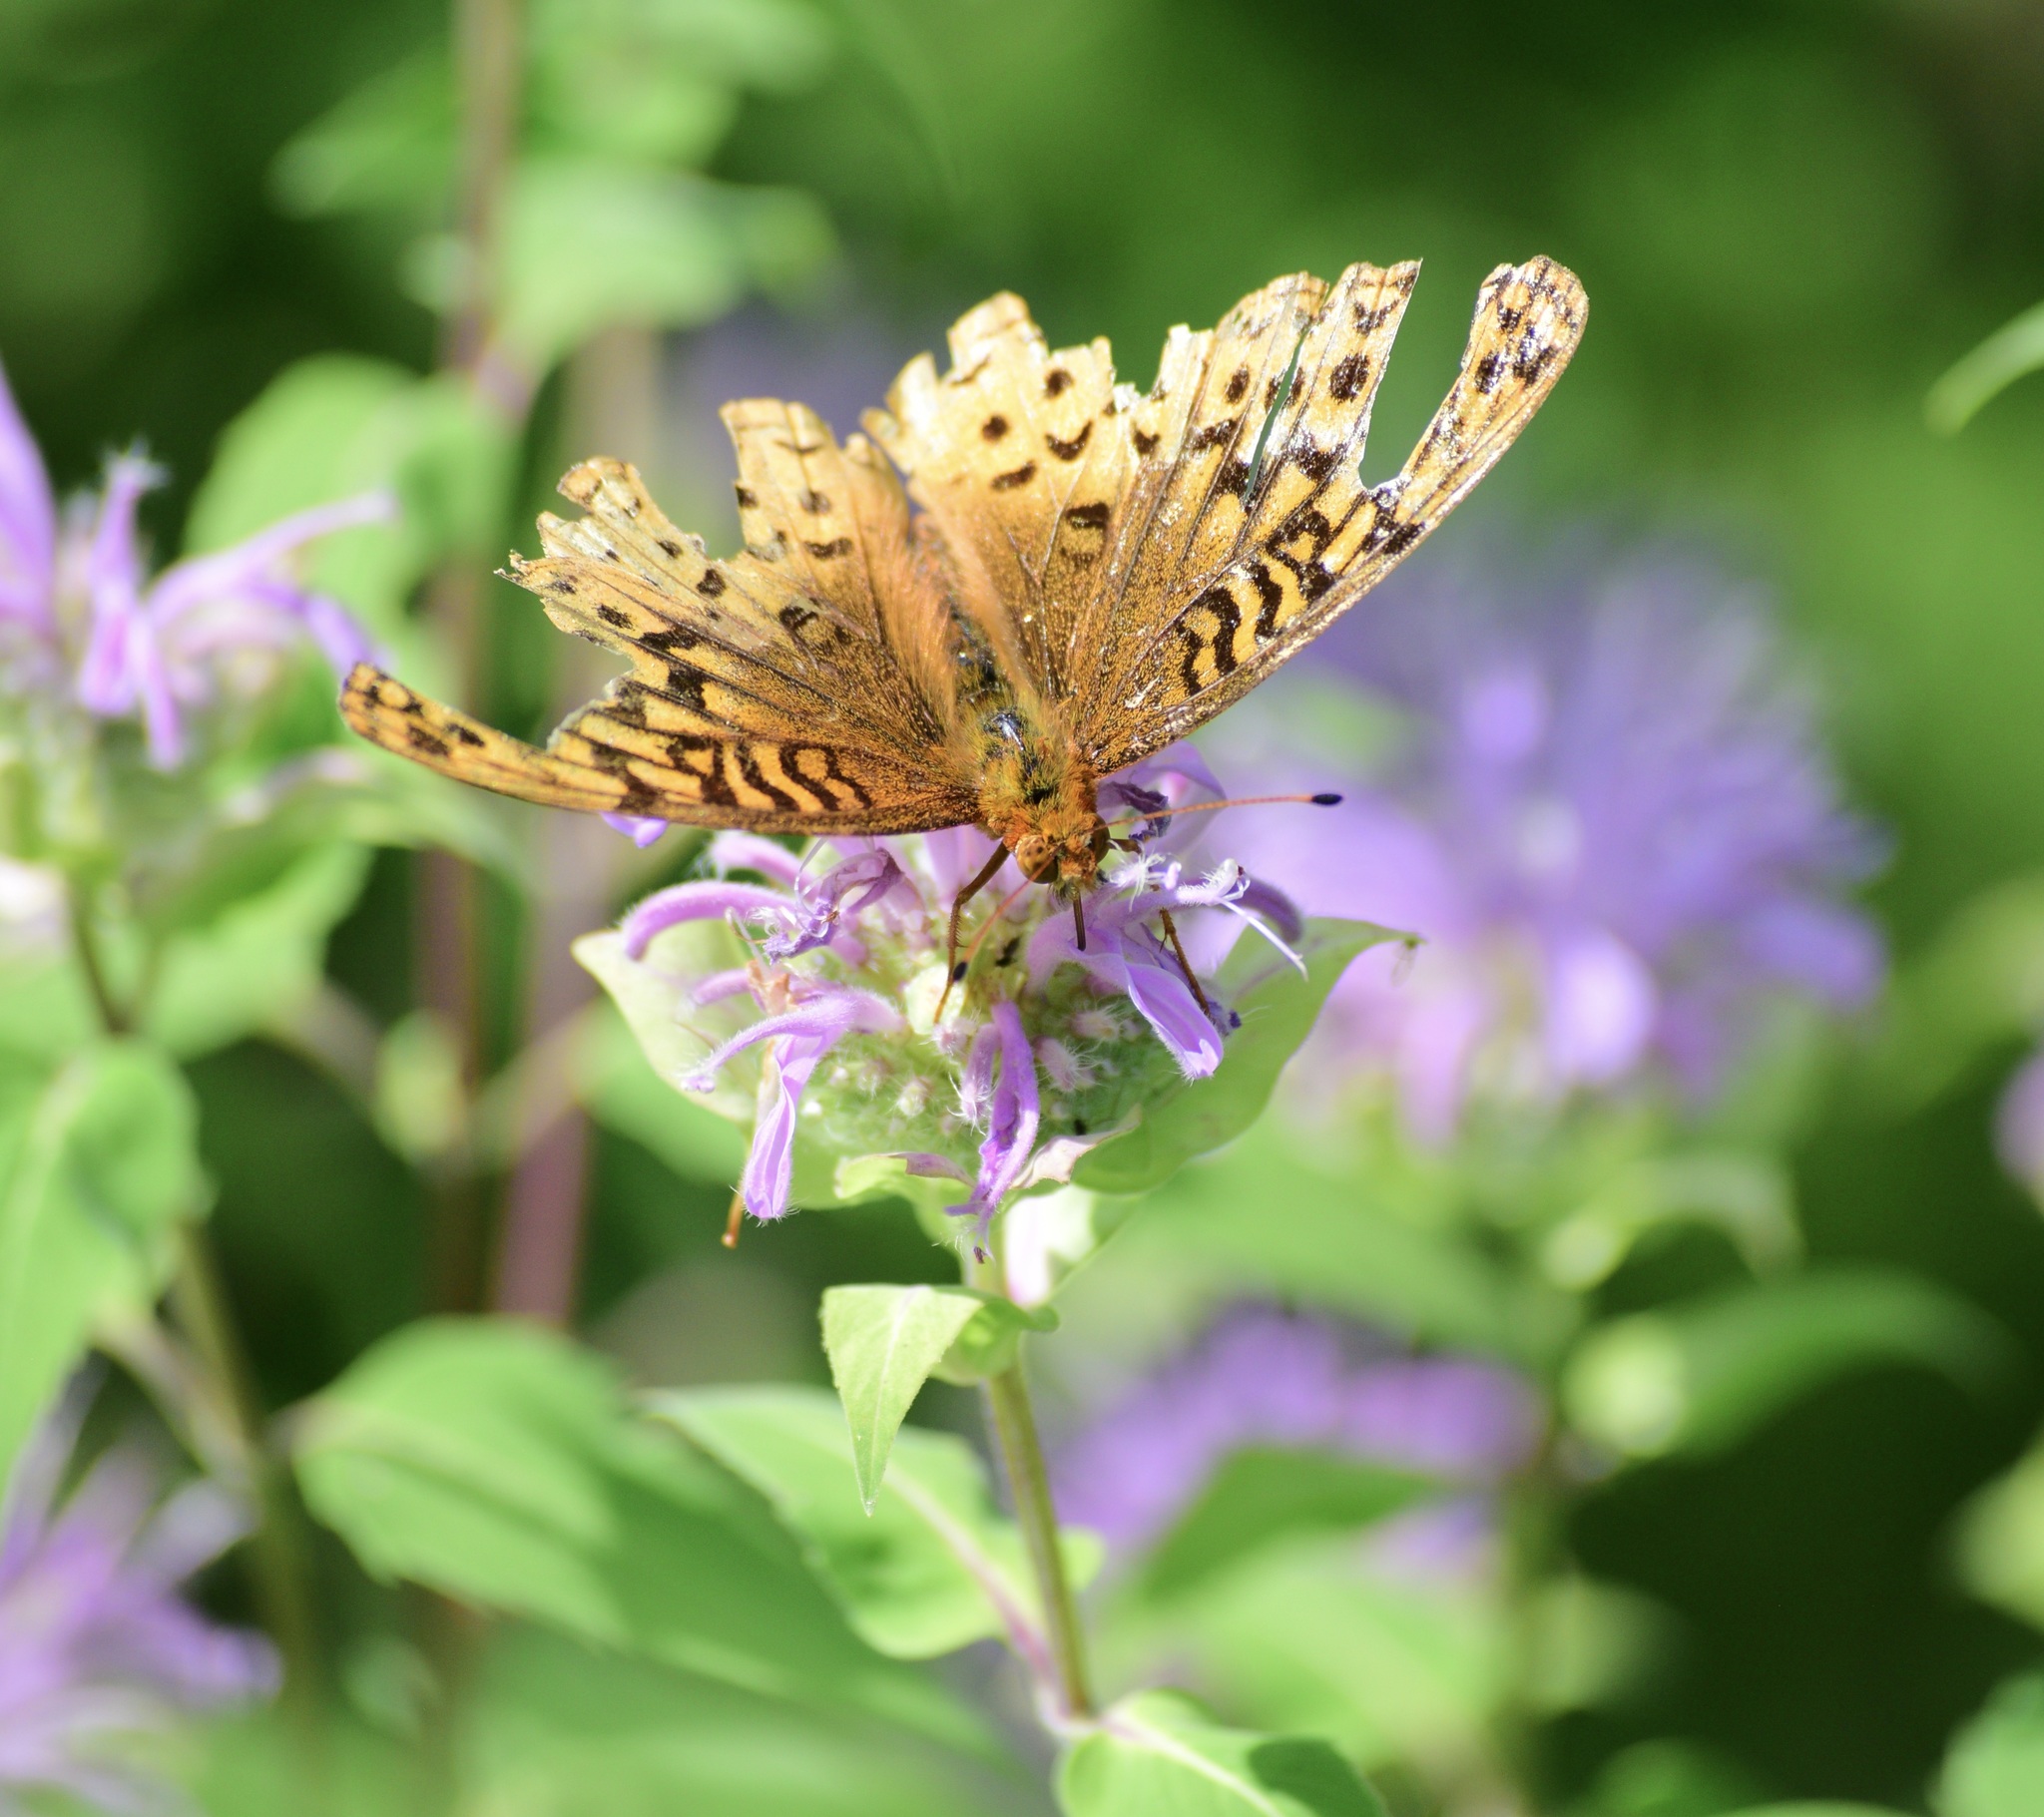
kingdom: Animalia
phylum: Arthropoda
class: Insecta
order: Lepidoptera
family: Nymphalidae
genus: Speyeria
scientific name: Speyeria cybele
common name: Great spangled fritillary
